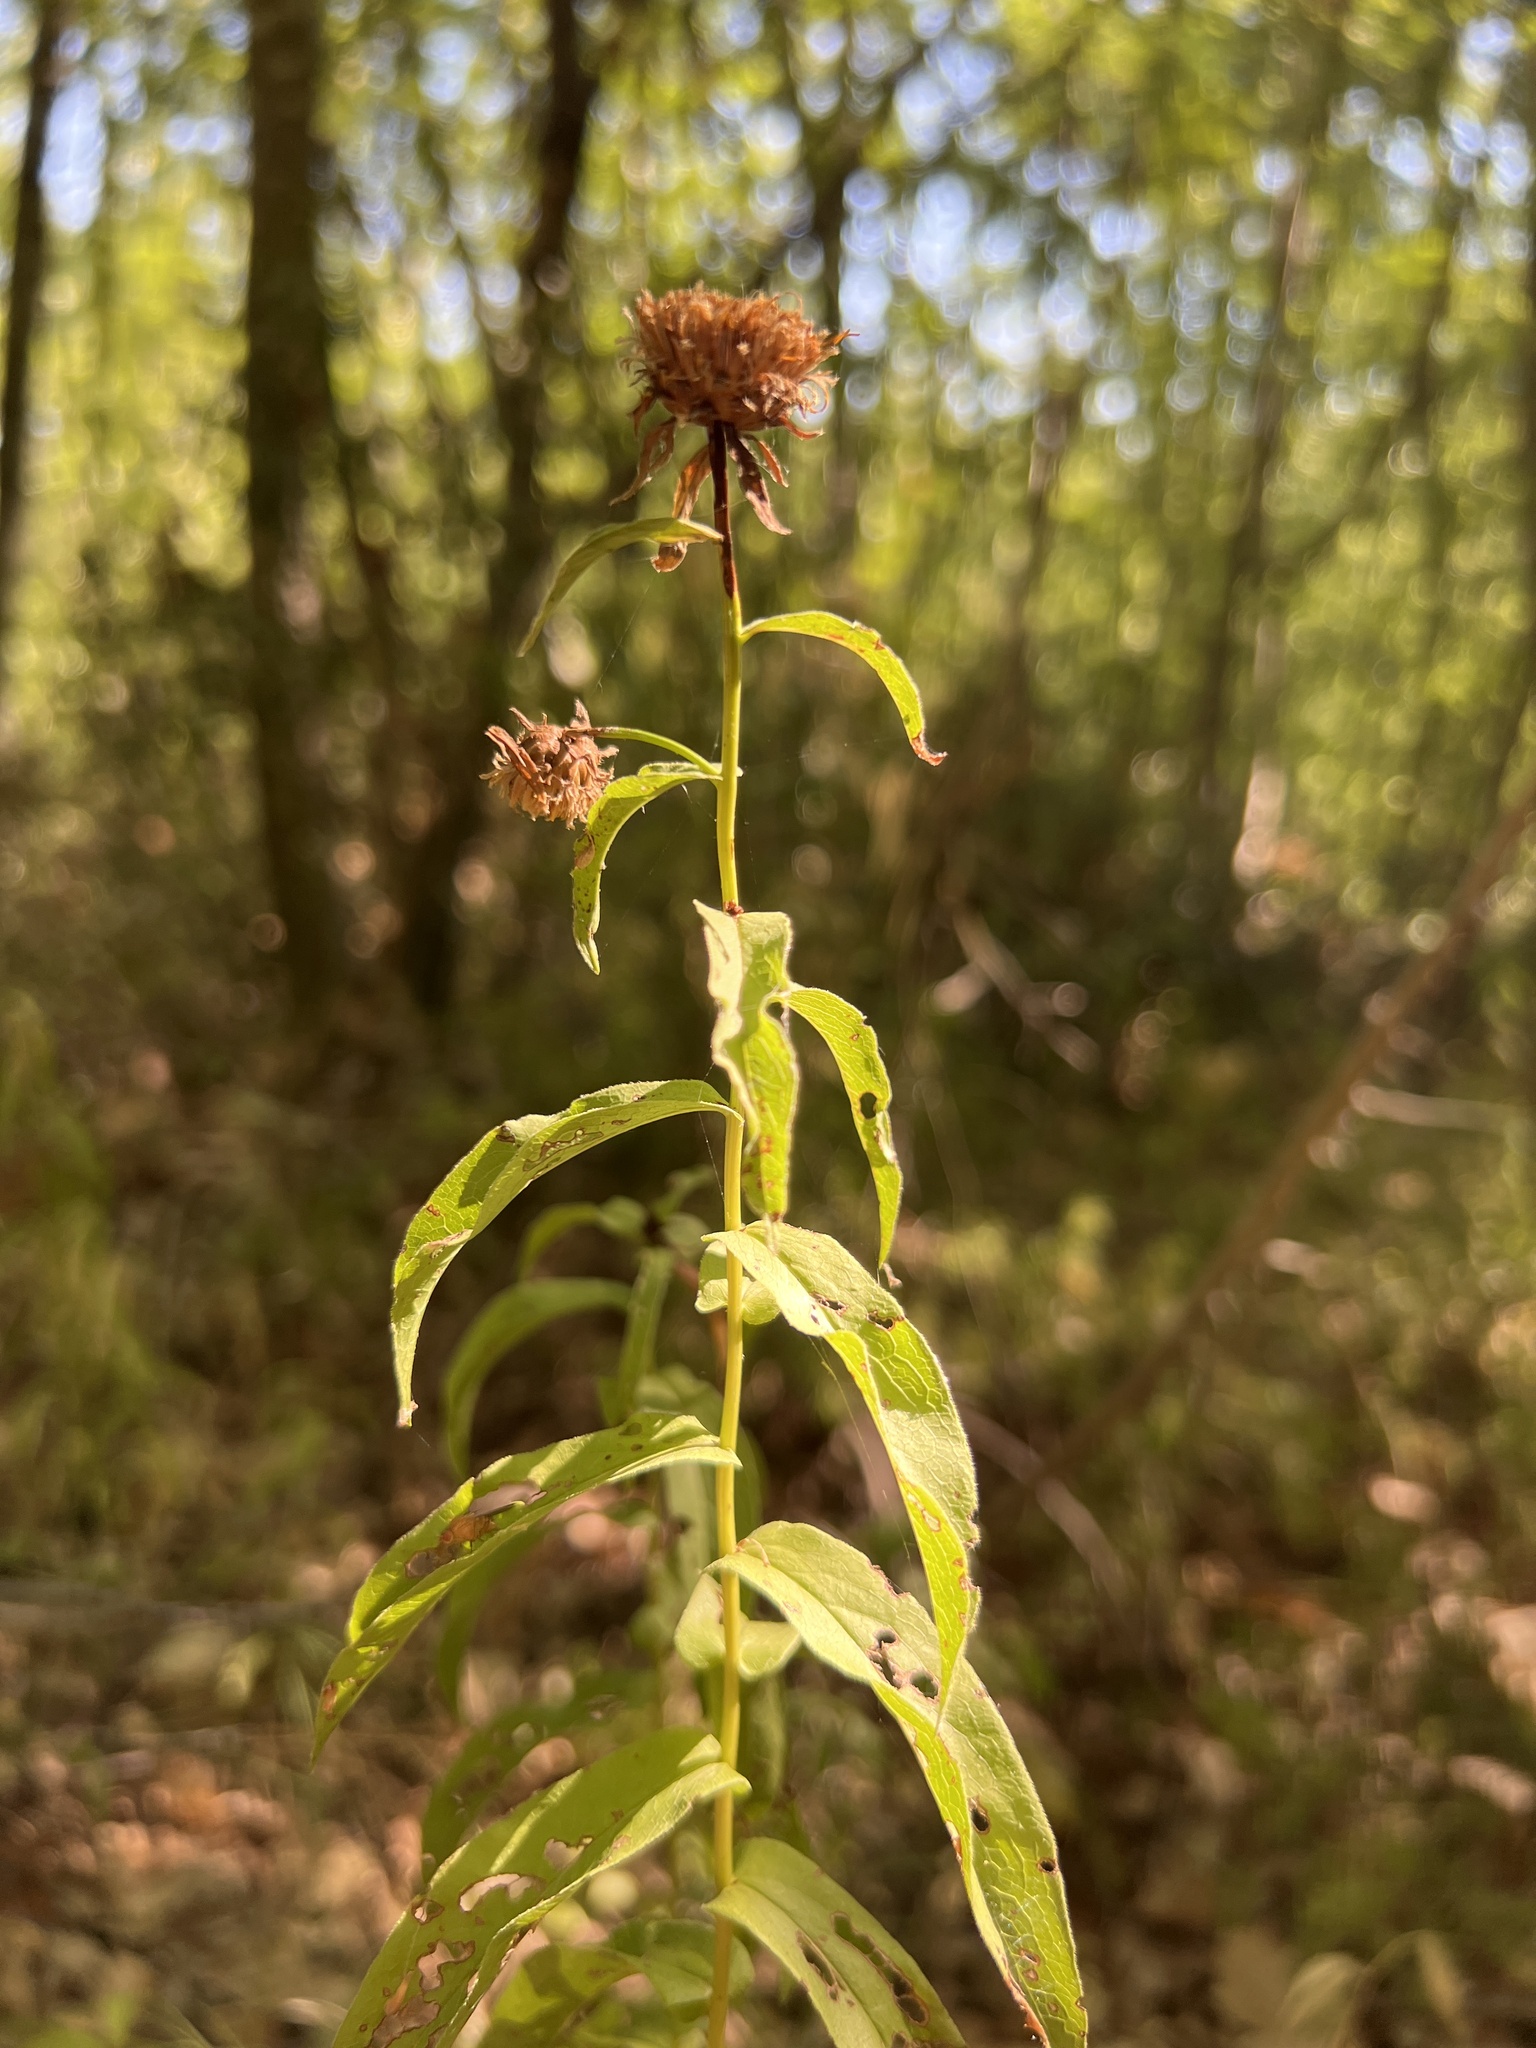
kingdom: Plantae
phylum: Tracheophyta
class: Magnoliopsida
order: Asterales
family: Asteraceae
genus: Pentanema
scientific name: Pentanema salicinum
